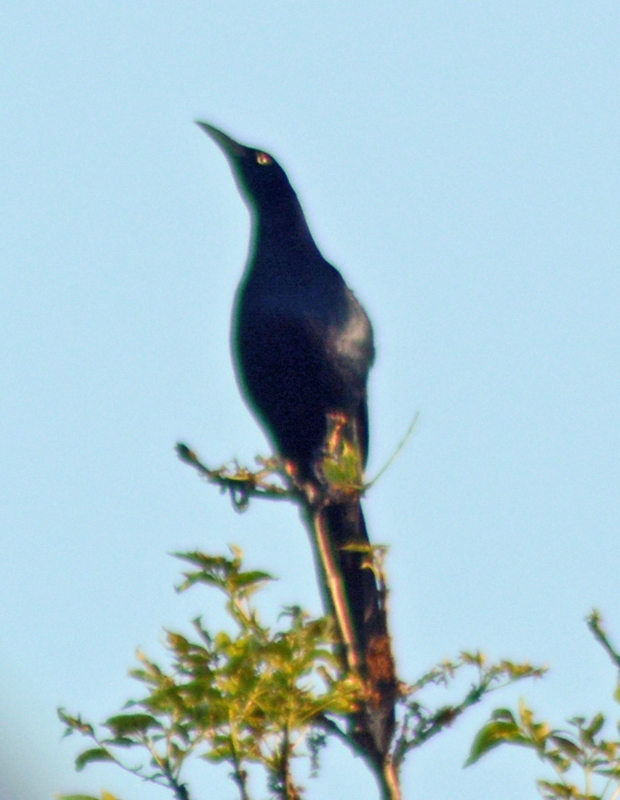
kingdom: Animalia
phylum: Chordata
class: Aves
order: Passeriformes
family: Icteridae
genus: Quiscalus
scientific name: Quiscalus mexicanus
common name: Great-tailed grackle
